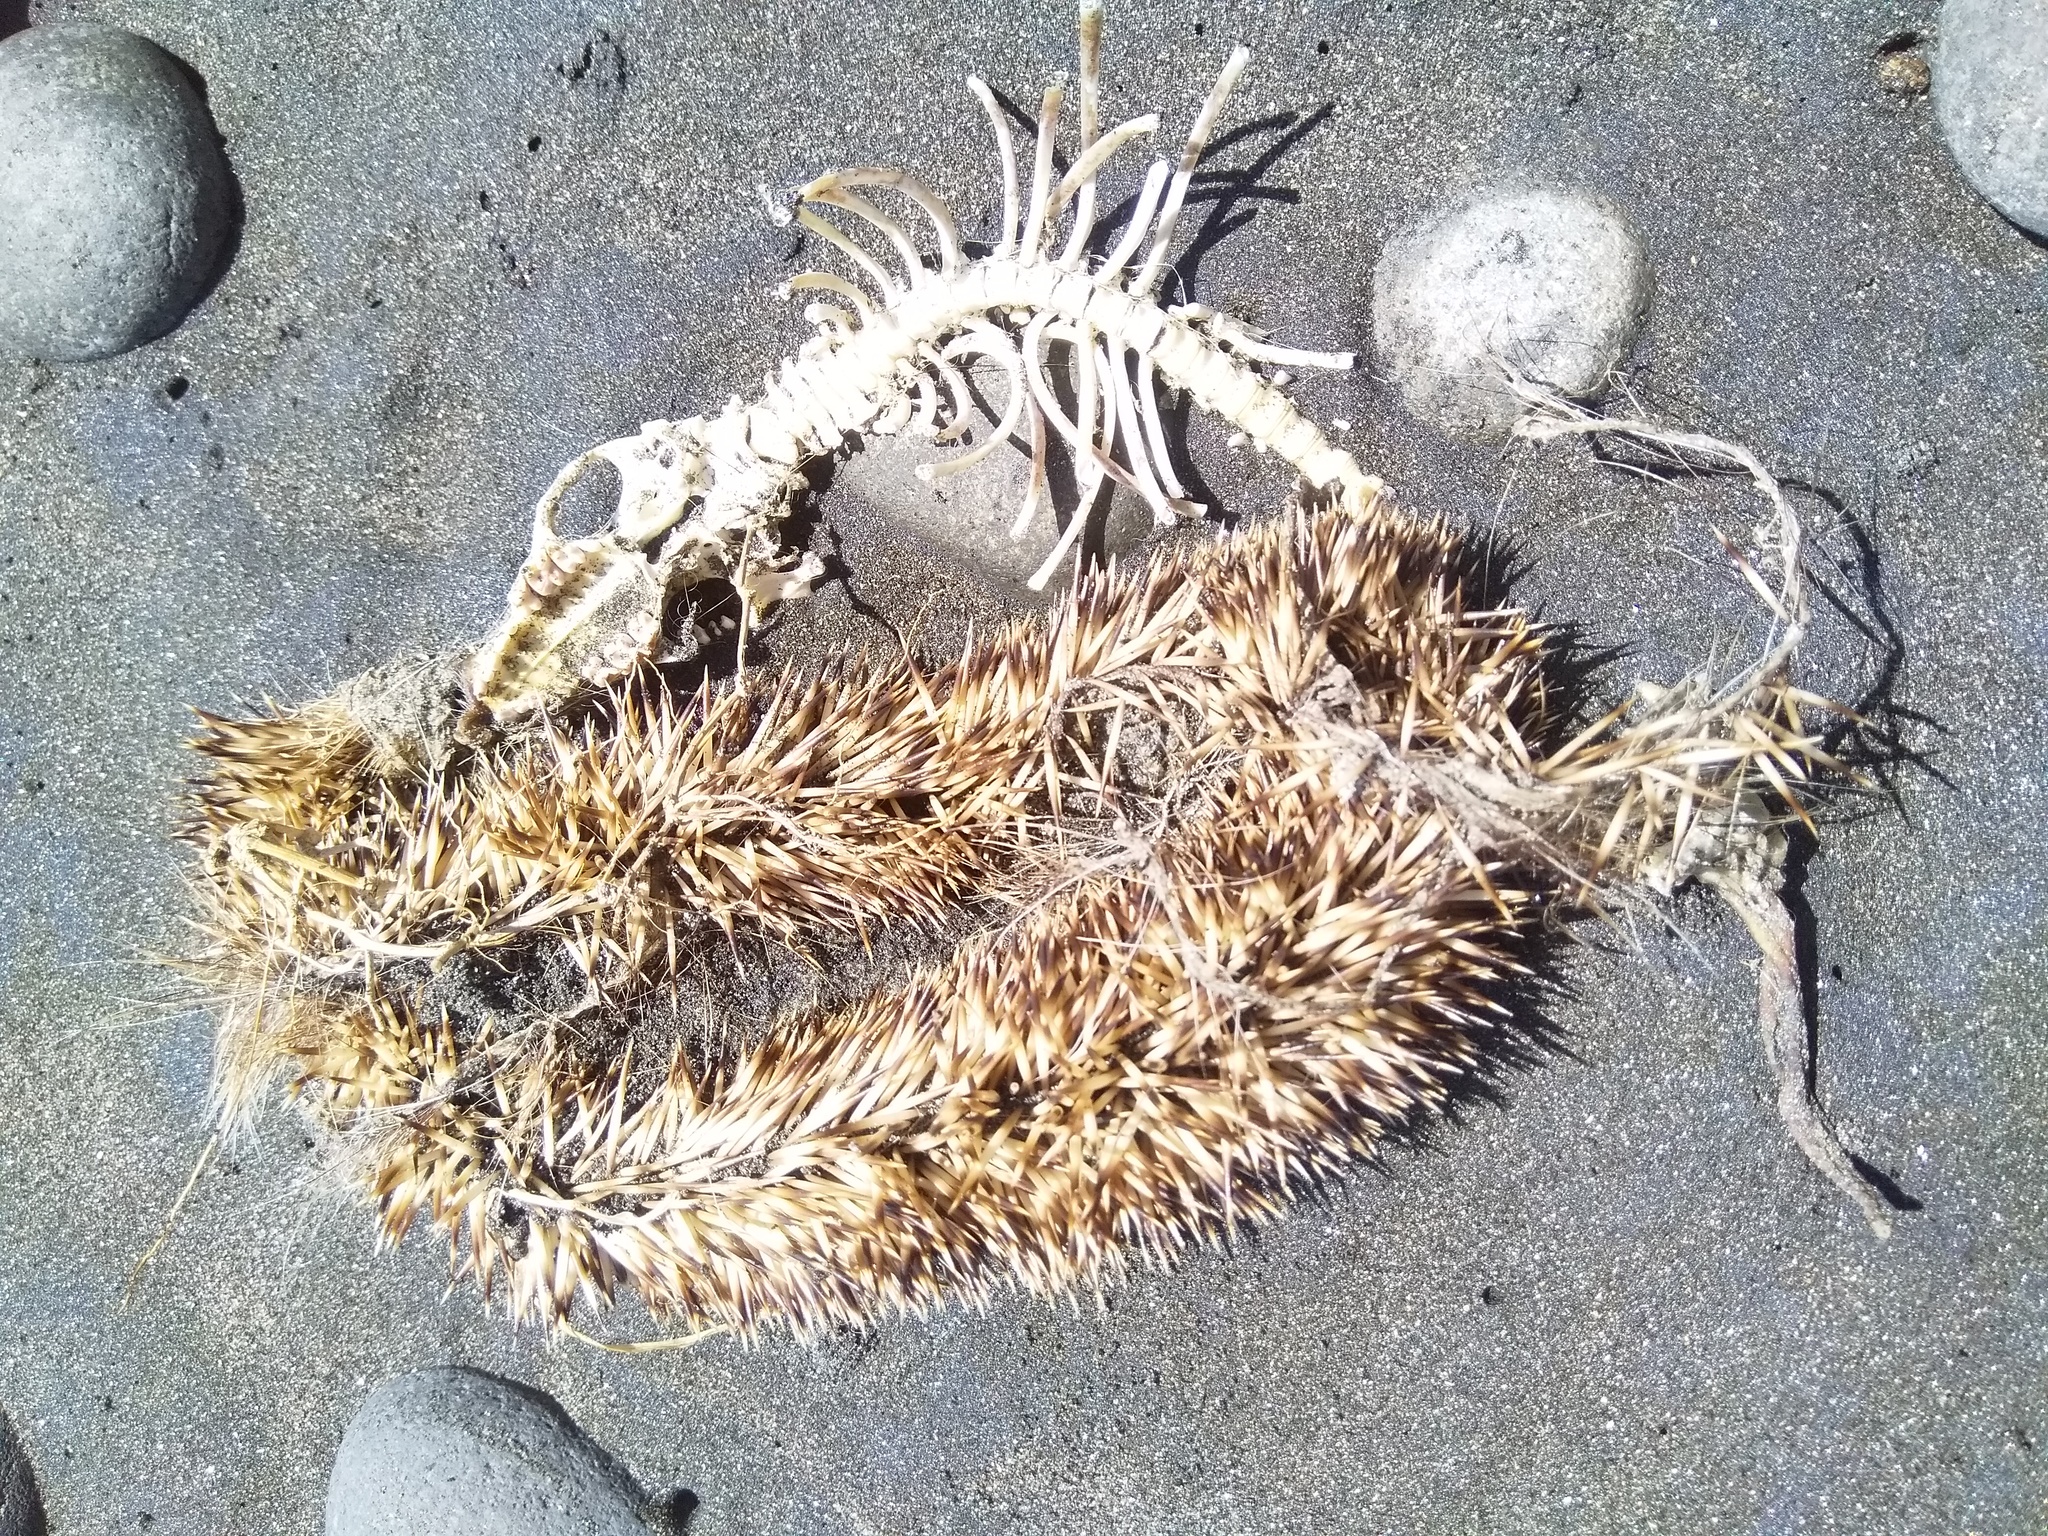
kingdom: Animalia
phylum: Chordata
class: Mammalia
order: Erinaceomorpha
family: Erinaceidae
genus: Erinaceus
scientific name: Erinaceus europaeus
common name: West european hedgehog
